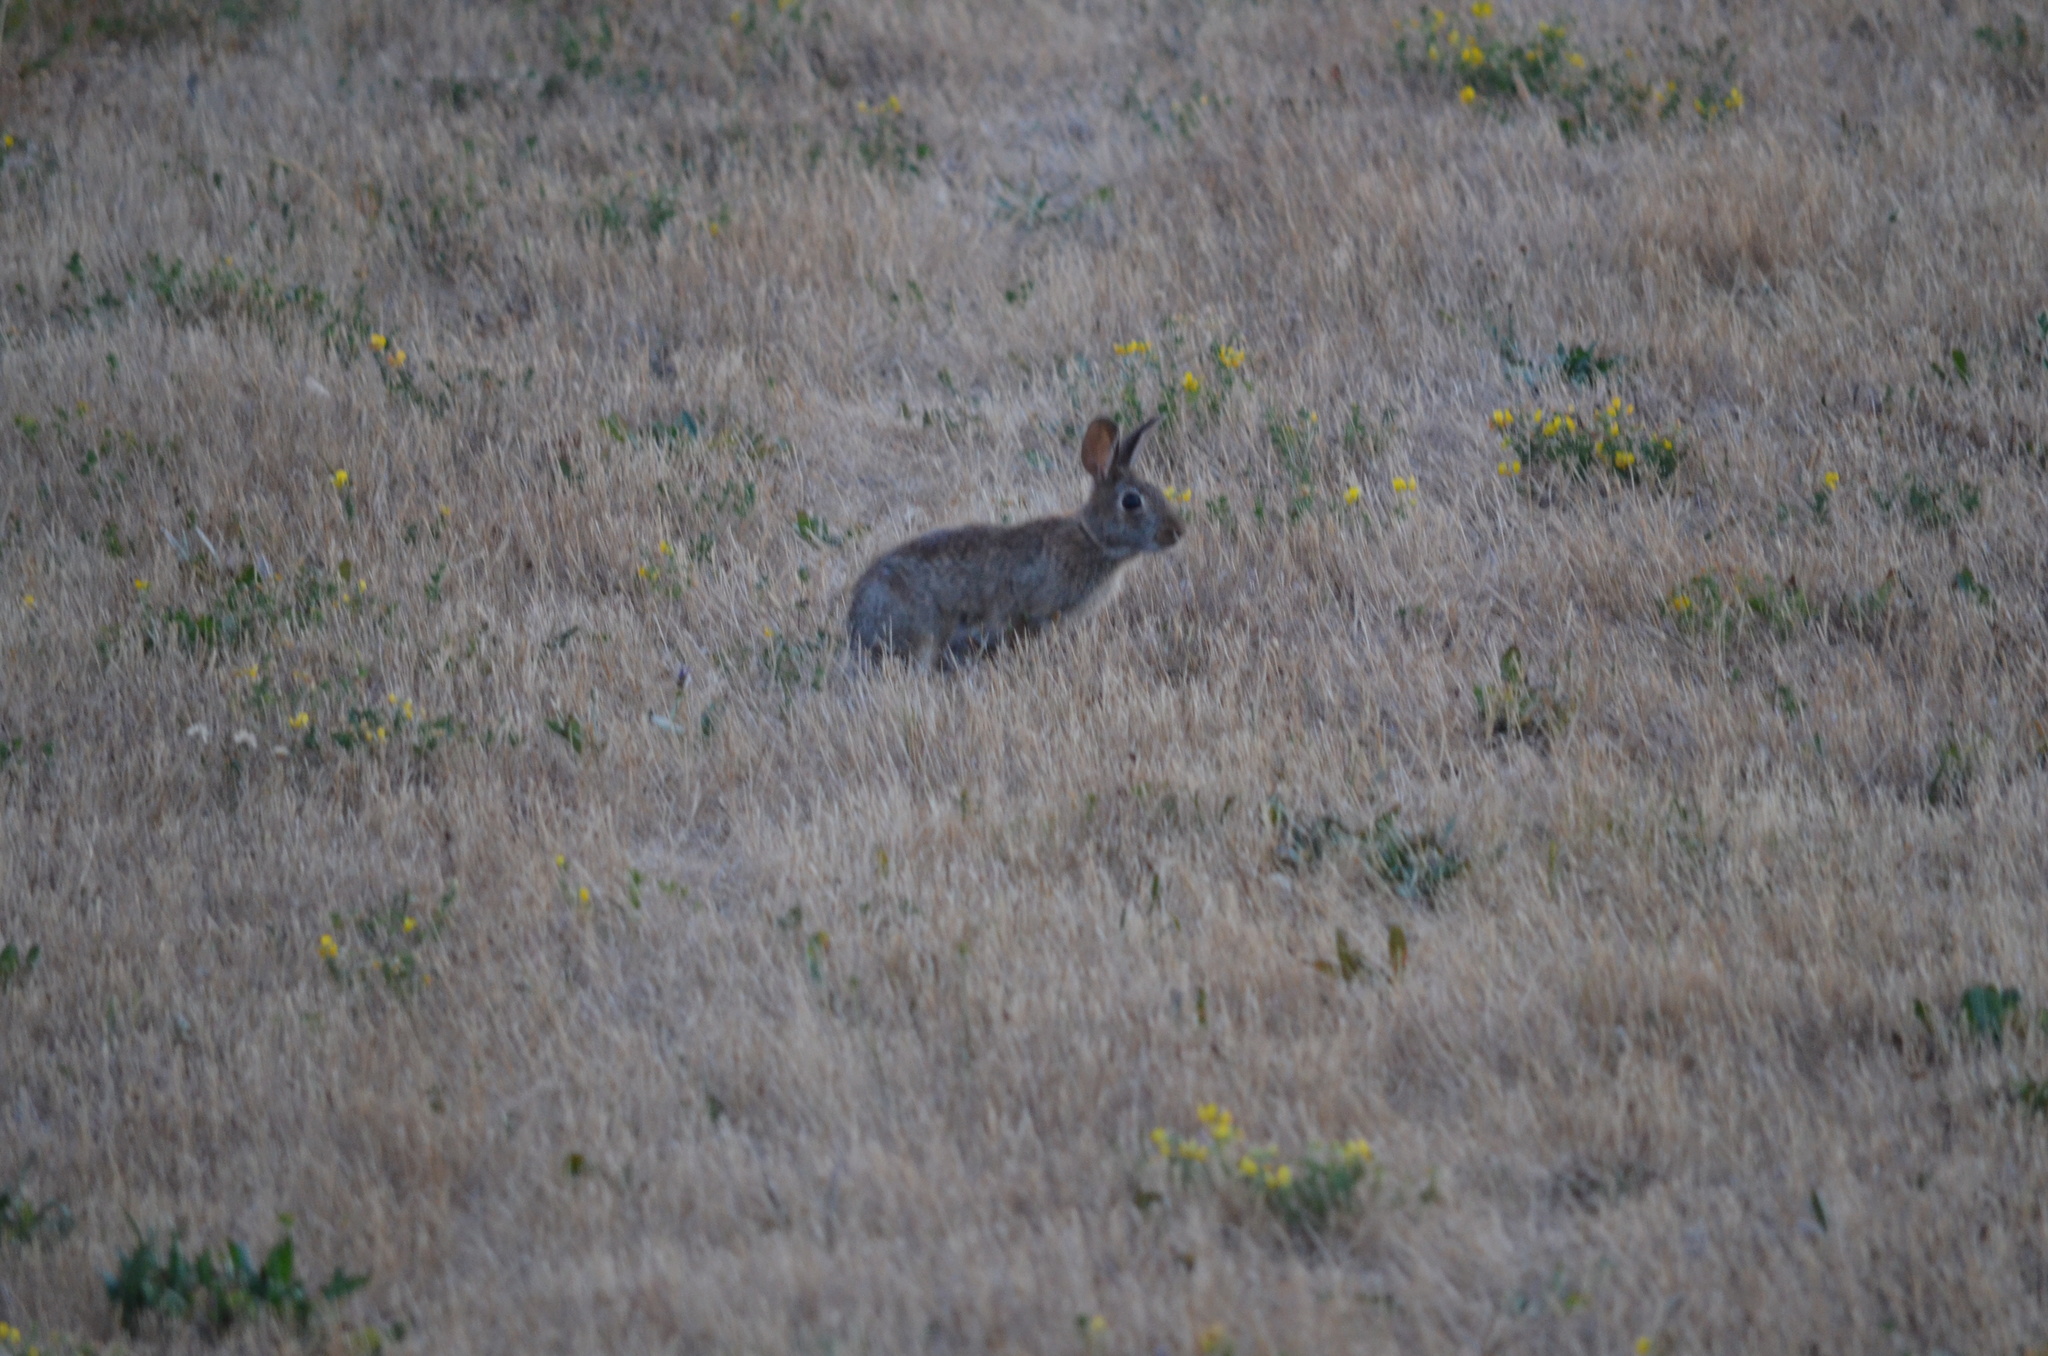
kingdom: Animalia
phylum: Chordata
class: Mammalia
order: Lagomorpha
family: Leporidae
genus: Sylvilagus
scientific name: Sylvilagus floridanus
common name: Eastern cottontail
